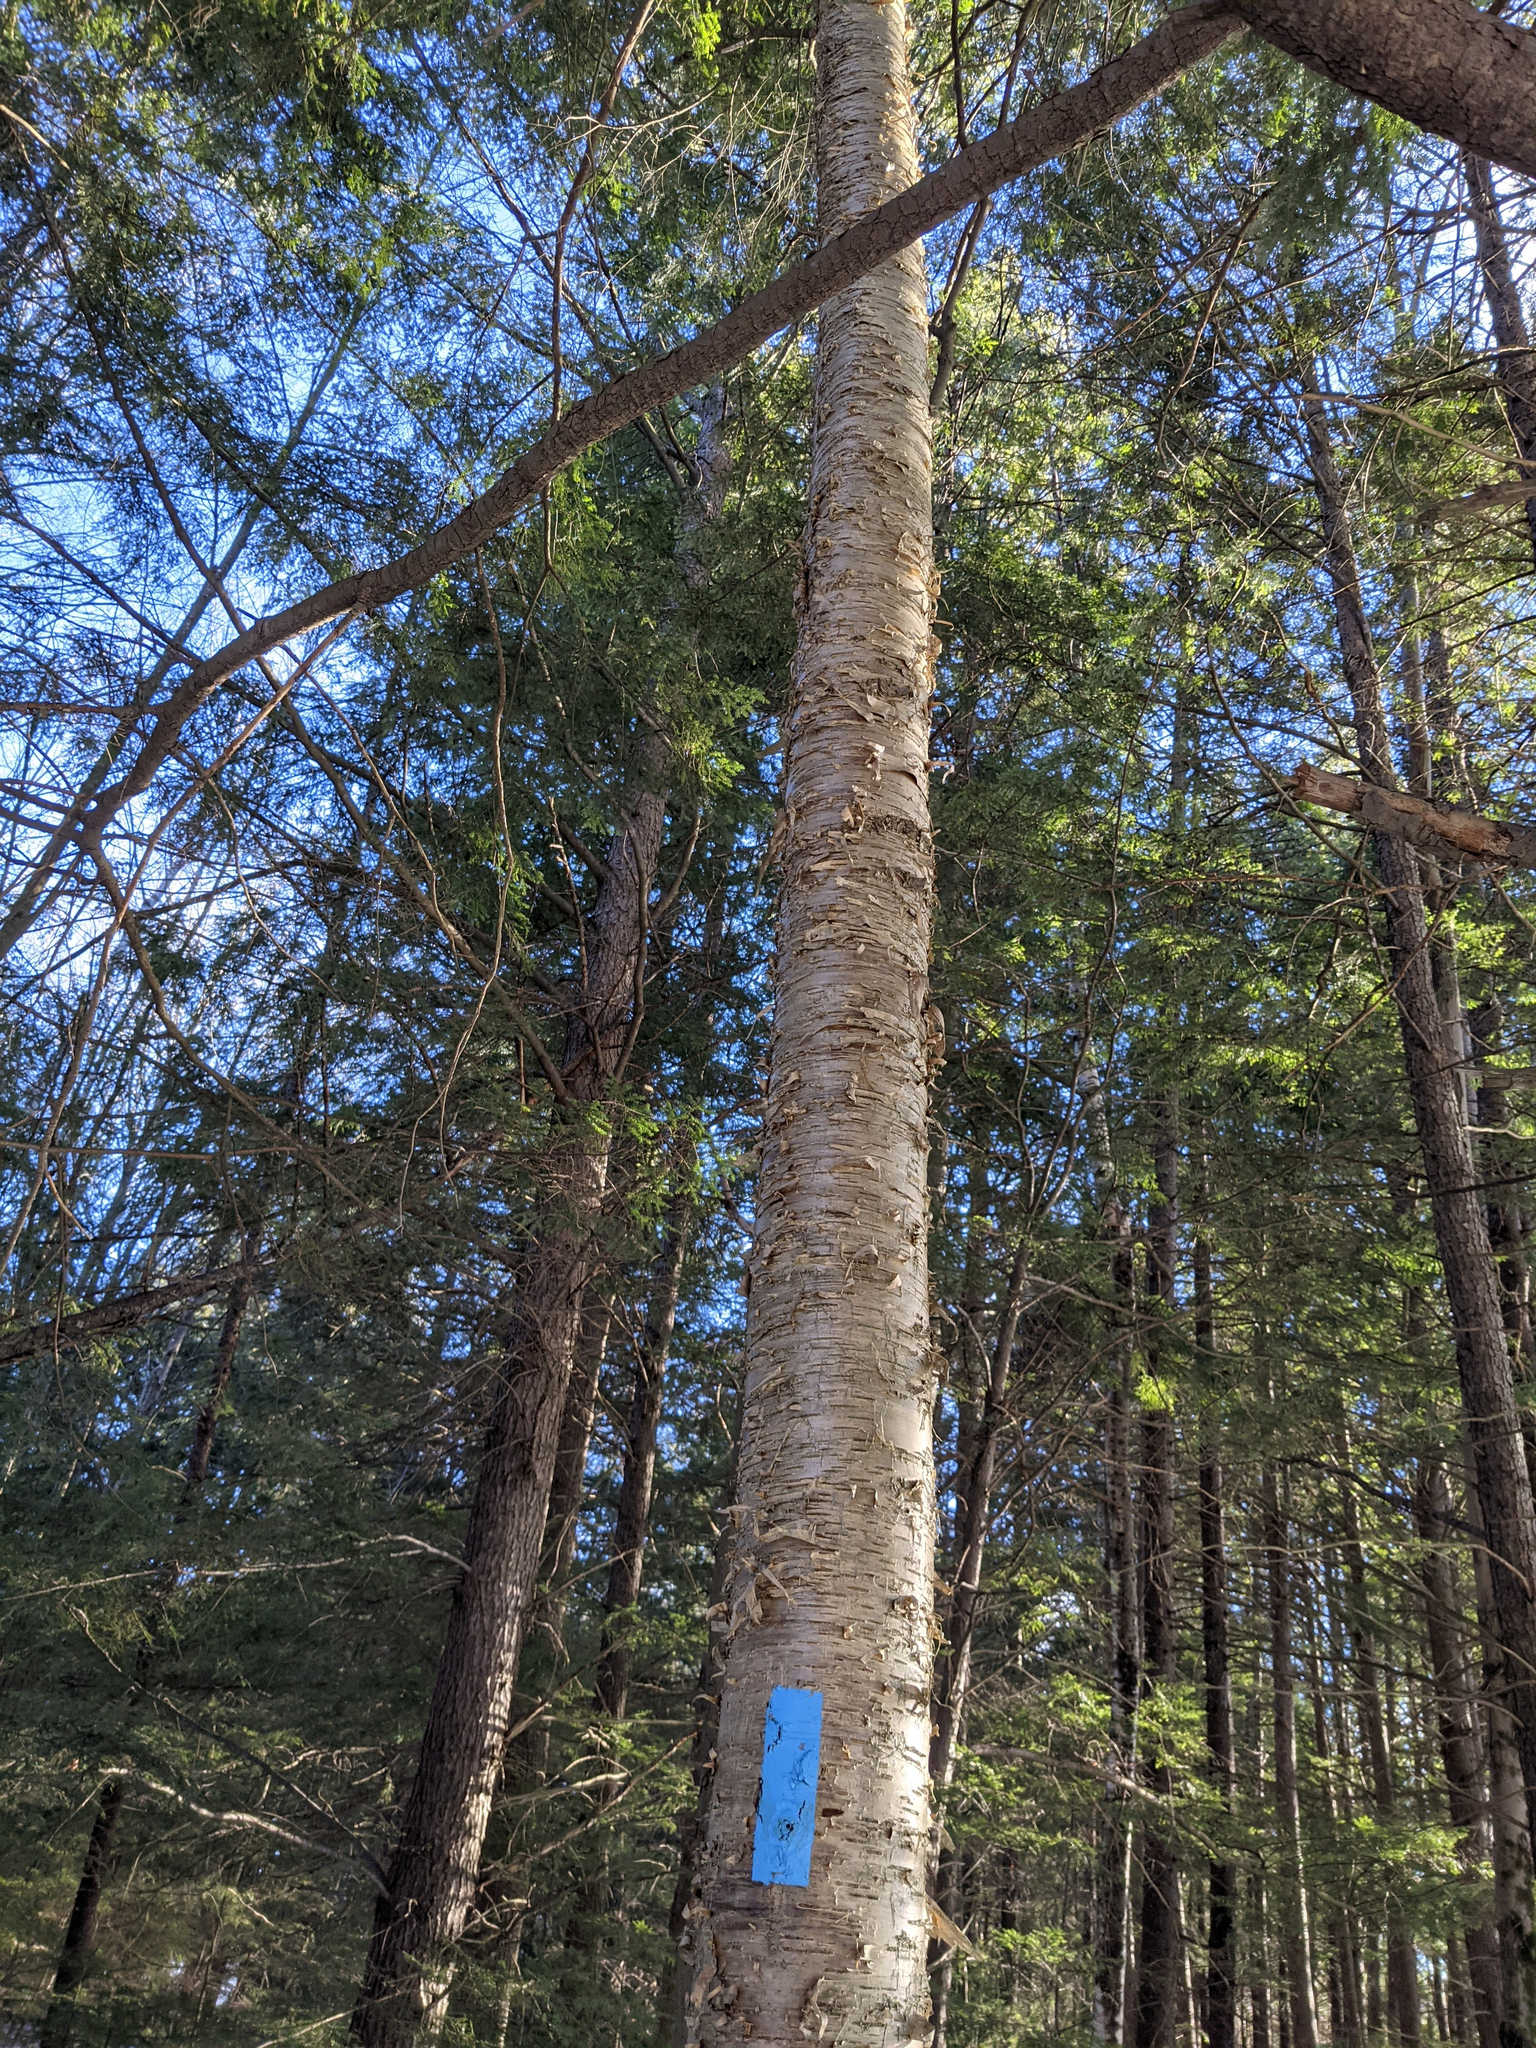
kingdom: Plantae
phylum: Tracheophyta
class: Magnoliopsida
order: Fagales
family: Betulaceae
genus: Betula
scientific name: Betula alleghaniensis
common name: Yellow birch
